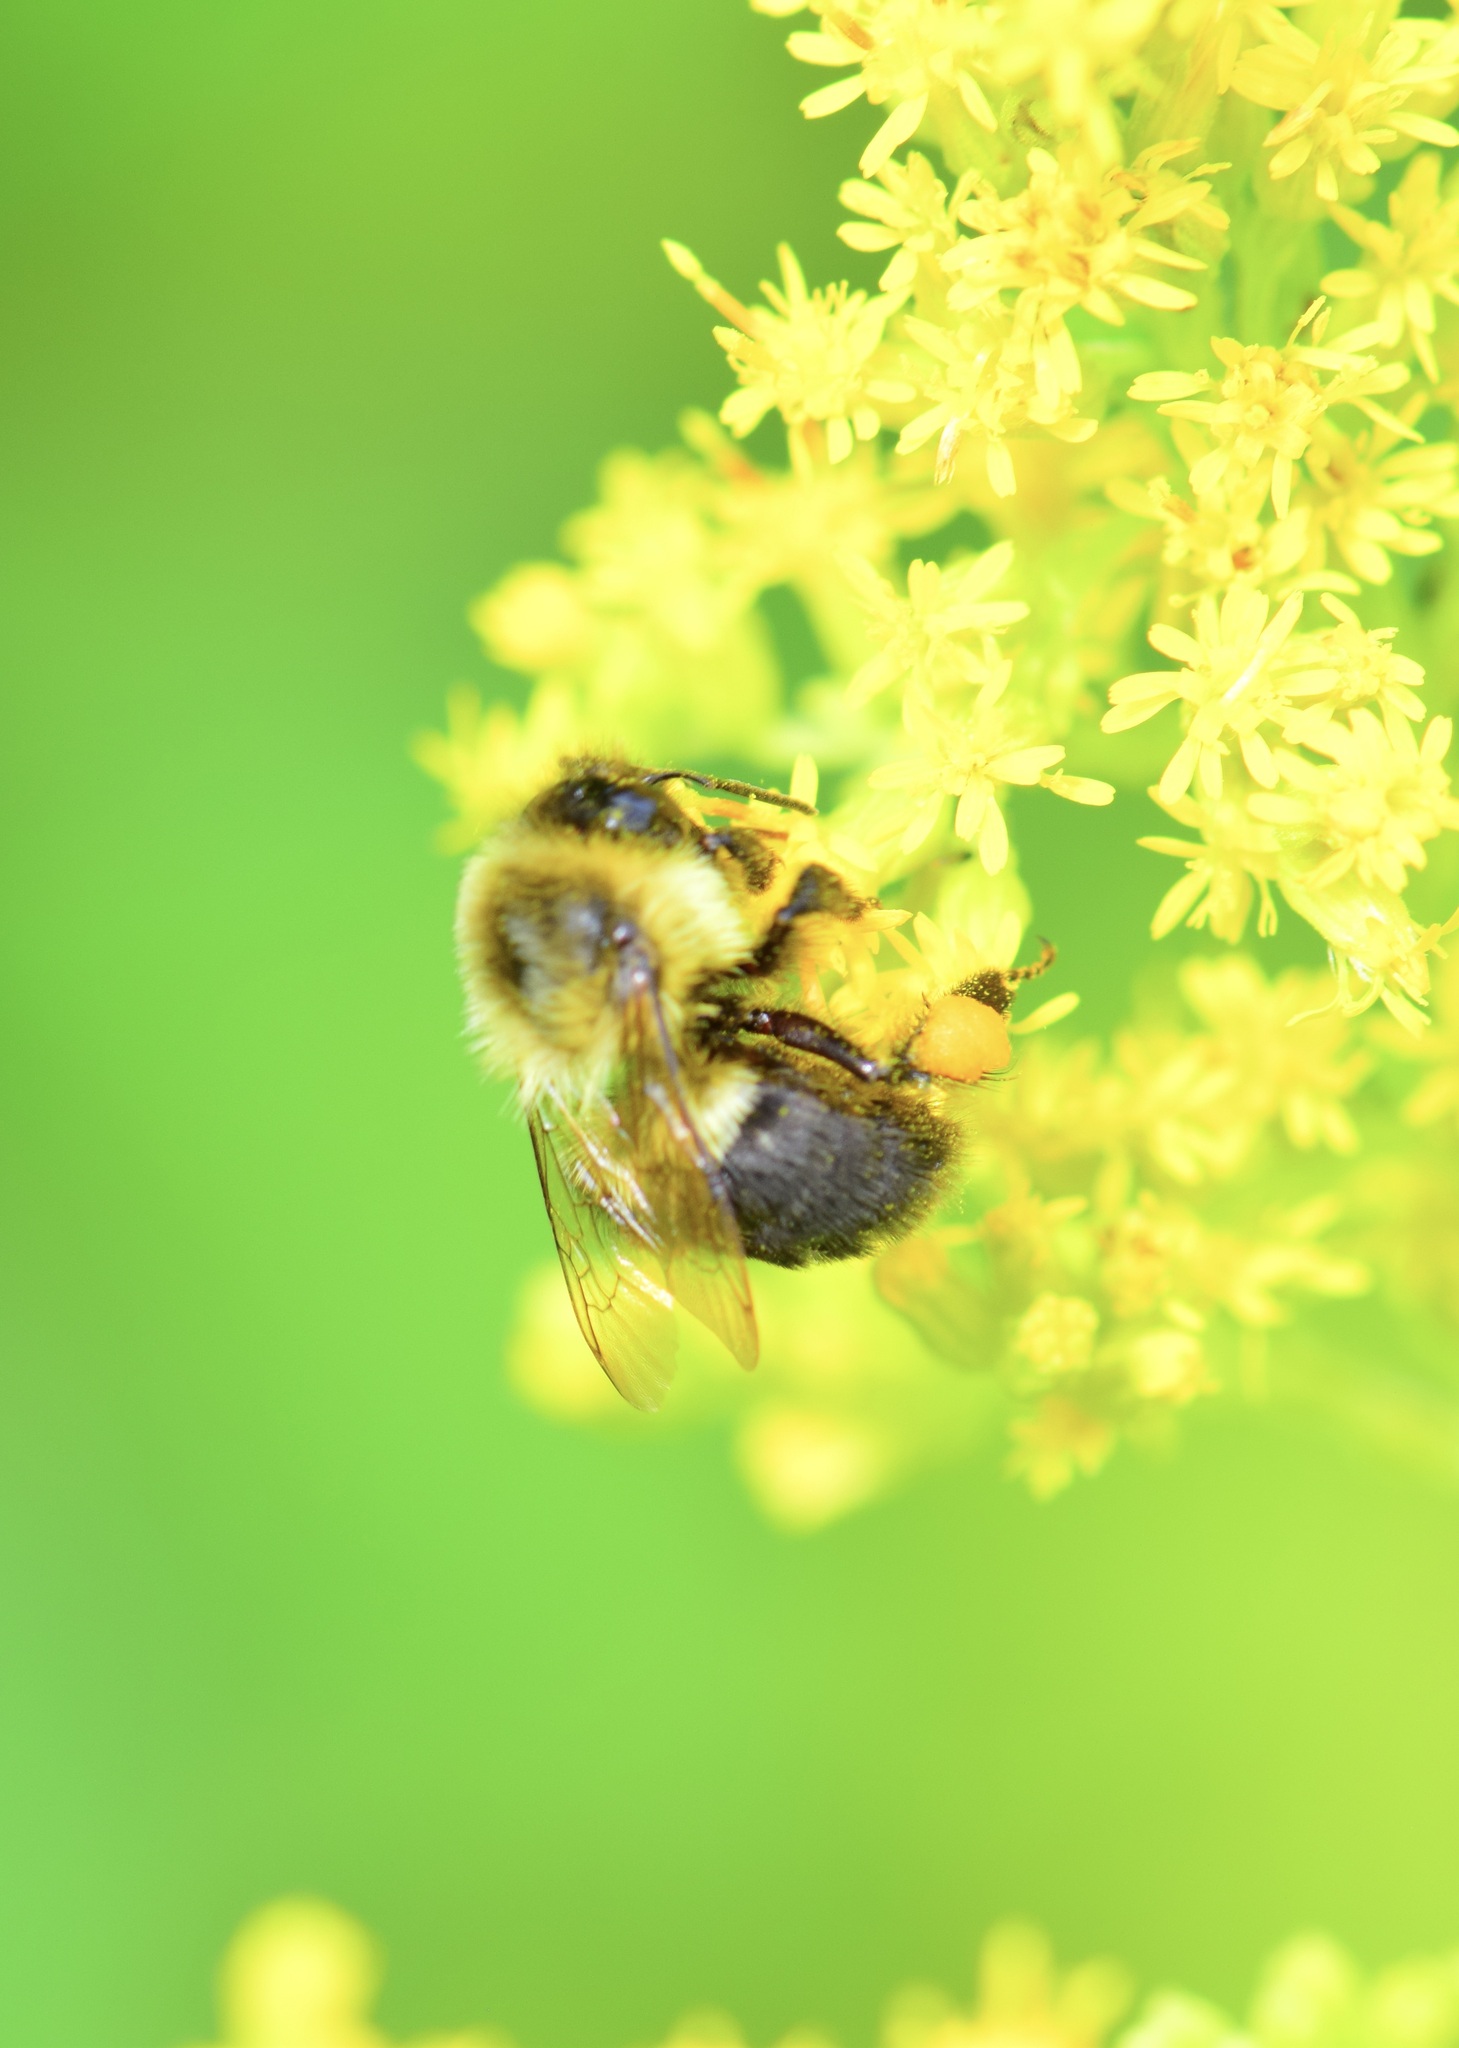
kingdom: Animalia
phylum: Arthropoda
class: Insecta
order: Hymenoptera
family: Apidae
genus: Bombus
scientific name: Bombus impatiens
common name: Common eastern bumble bee
